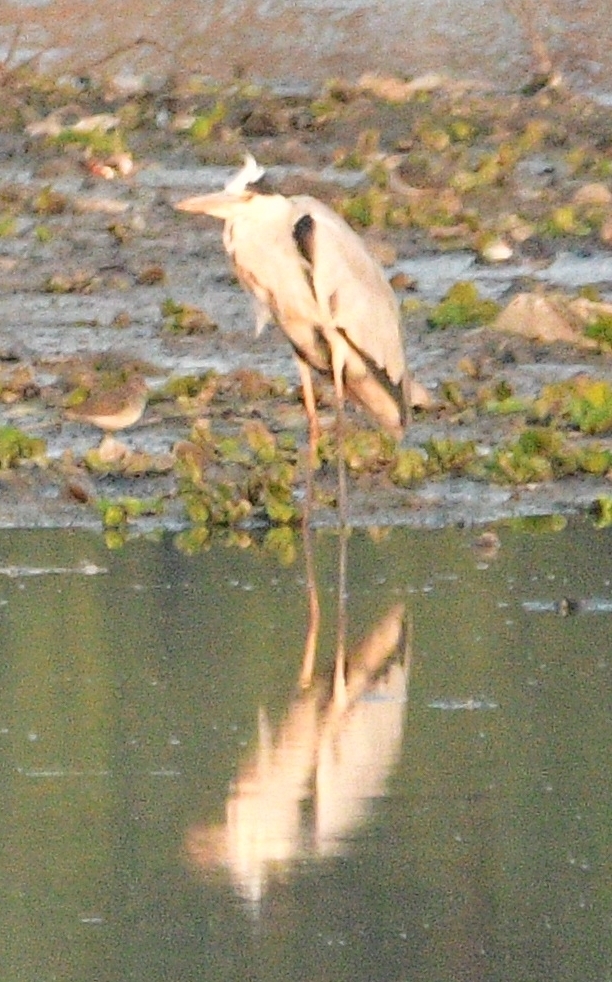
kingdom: Animalia
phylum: Chordata
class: Aves
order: Pelecaniformes
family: Ardeidae
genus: Ardea
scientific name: Ardea cinerea
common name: Grey heron
